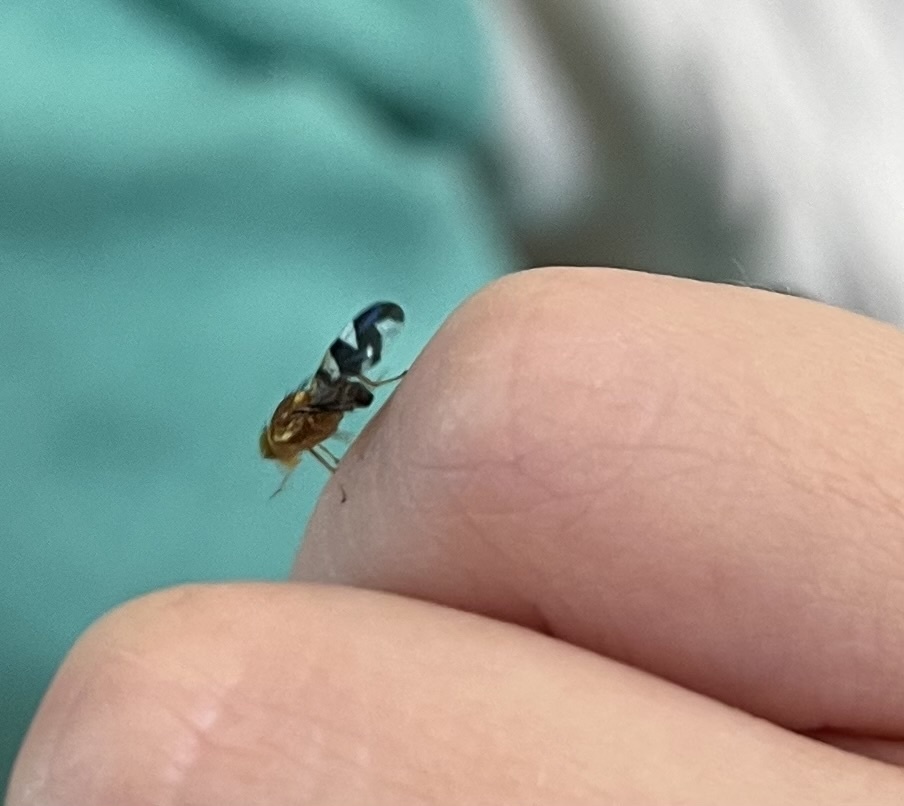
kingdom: Animalia
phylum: Arthropoda
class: Insecta
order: Diptera
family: Tephritidae
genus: Rhagoletis
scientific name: Rhagoletis suavis
